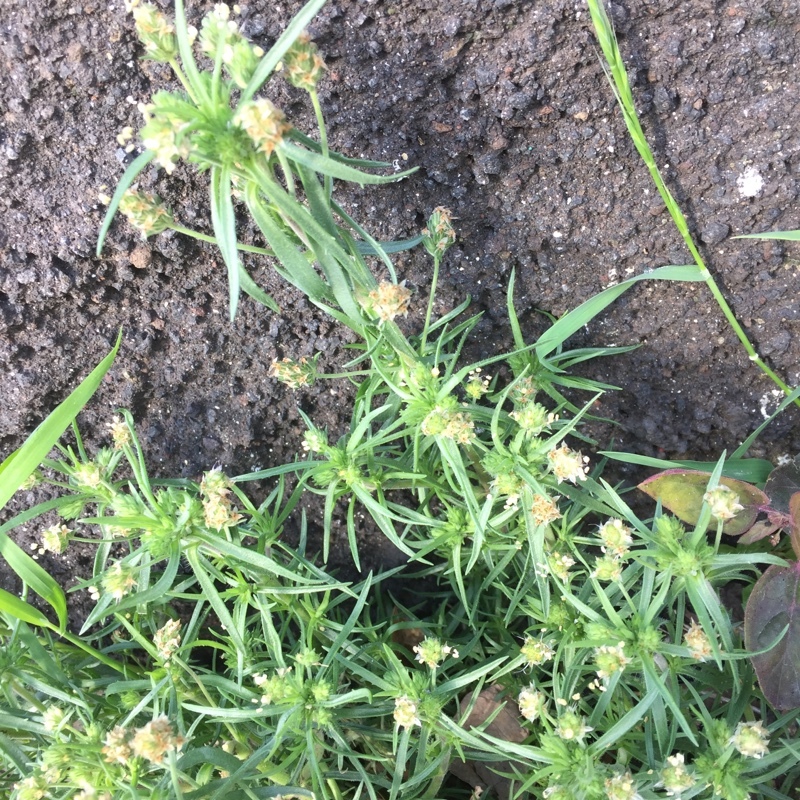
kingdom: Plantae
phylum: Tracheophyta
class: Magnoliopsida
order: Lamiales
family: Plantaginaceae
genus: Plantago
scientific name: Plantago arenaria
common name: Branched plantain
